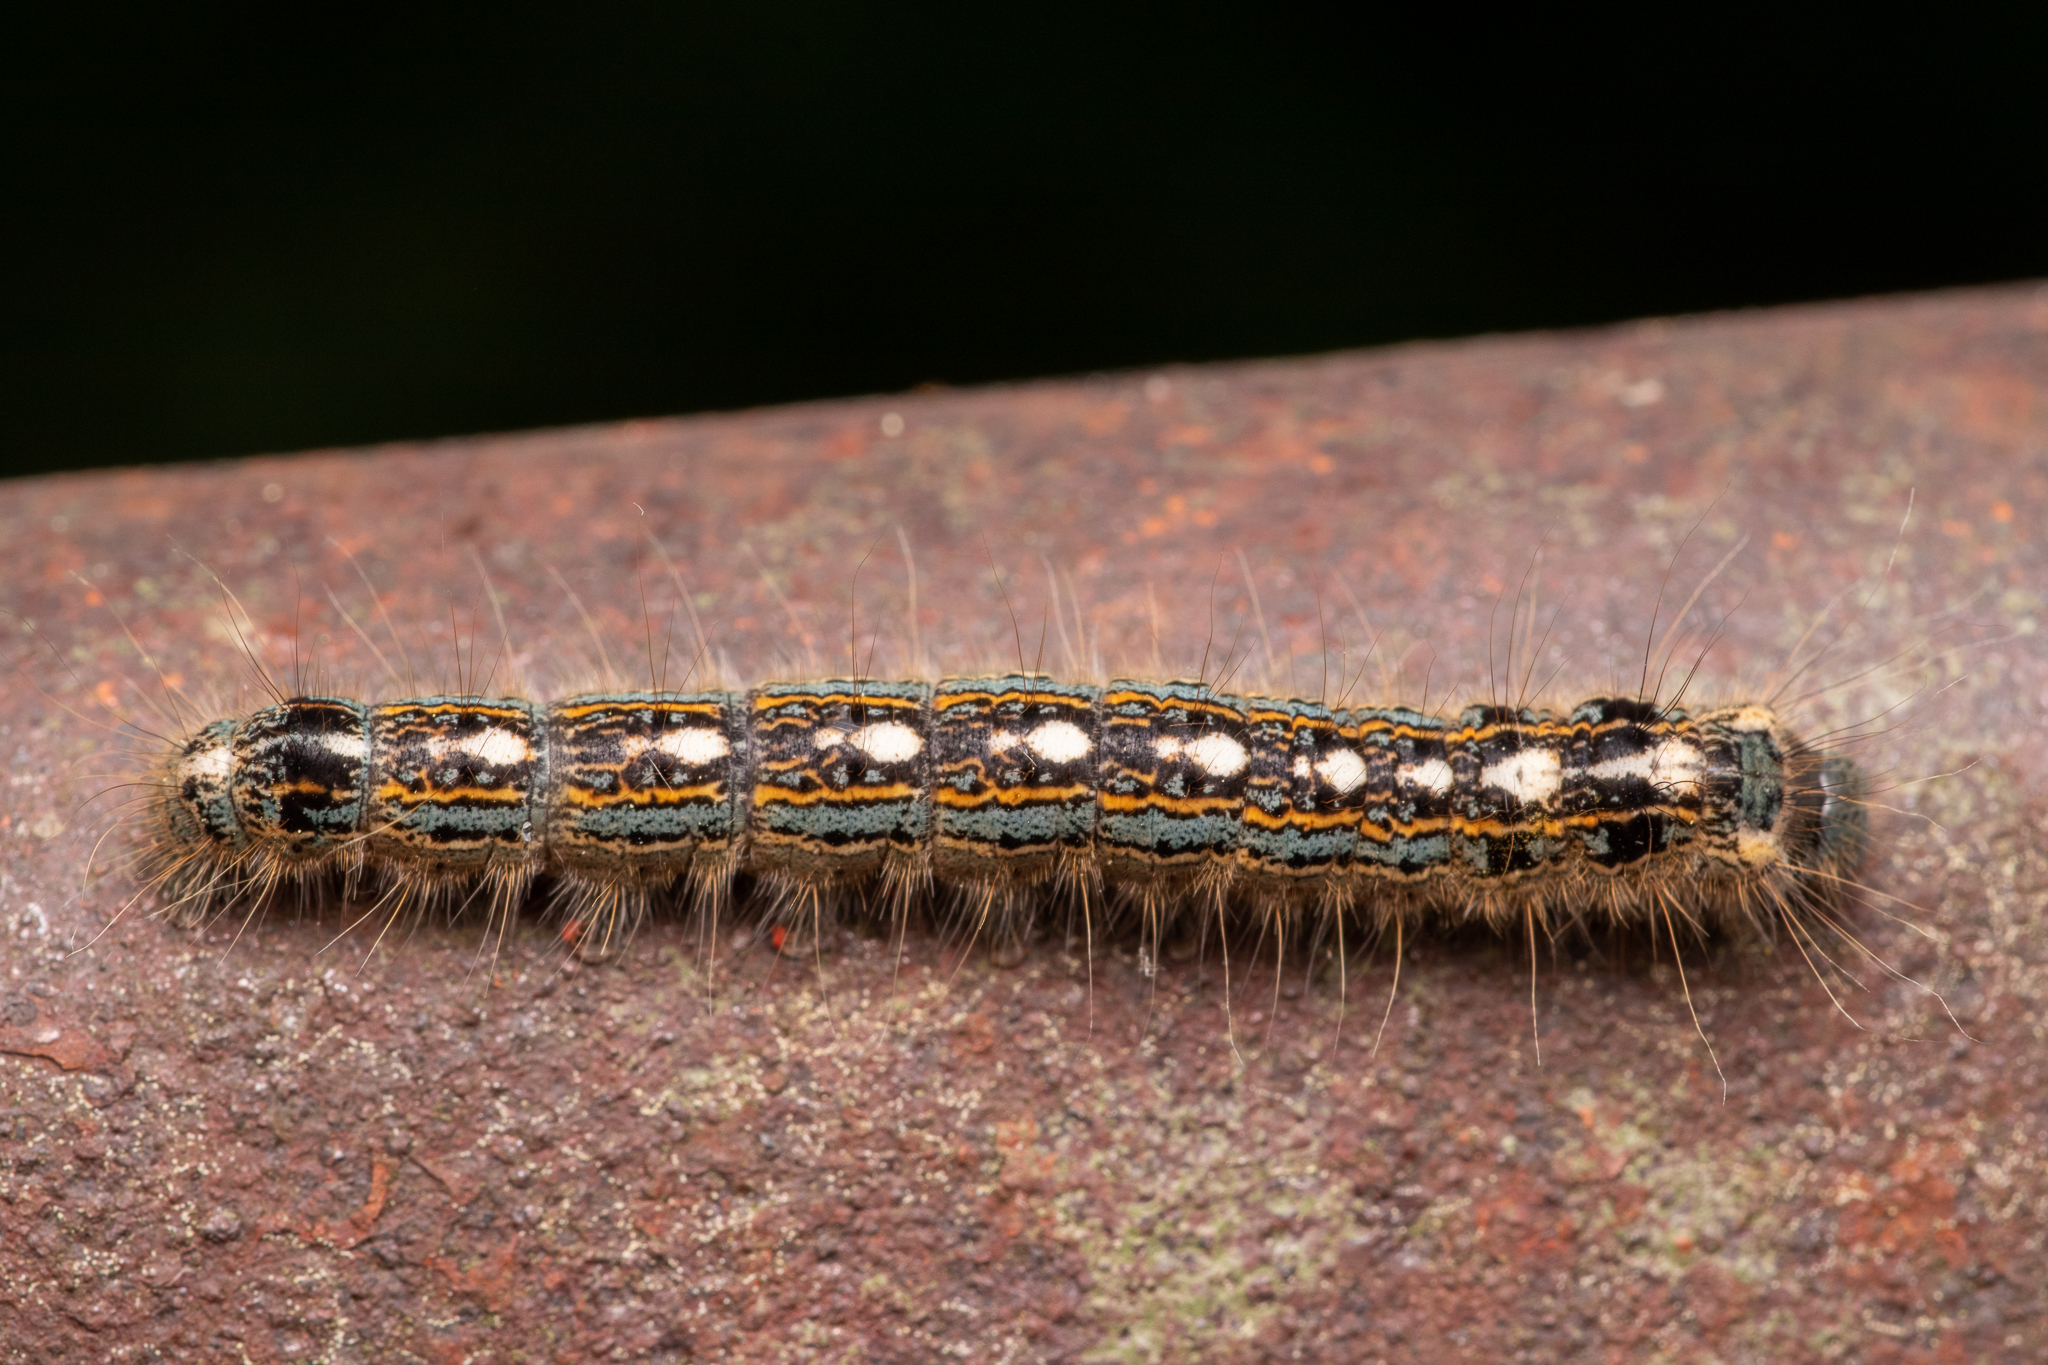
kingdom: Animalia
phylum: Arthropoda
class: Insecta
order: Lepidoptera
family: Lasiocampidae
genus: Malacosoma
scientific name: Malacosoma disstria
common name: Forest tent caterpillar
